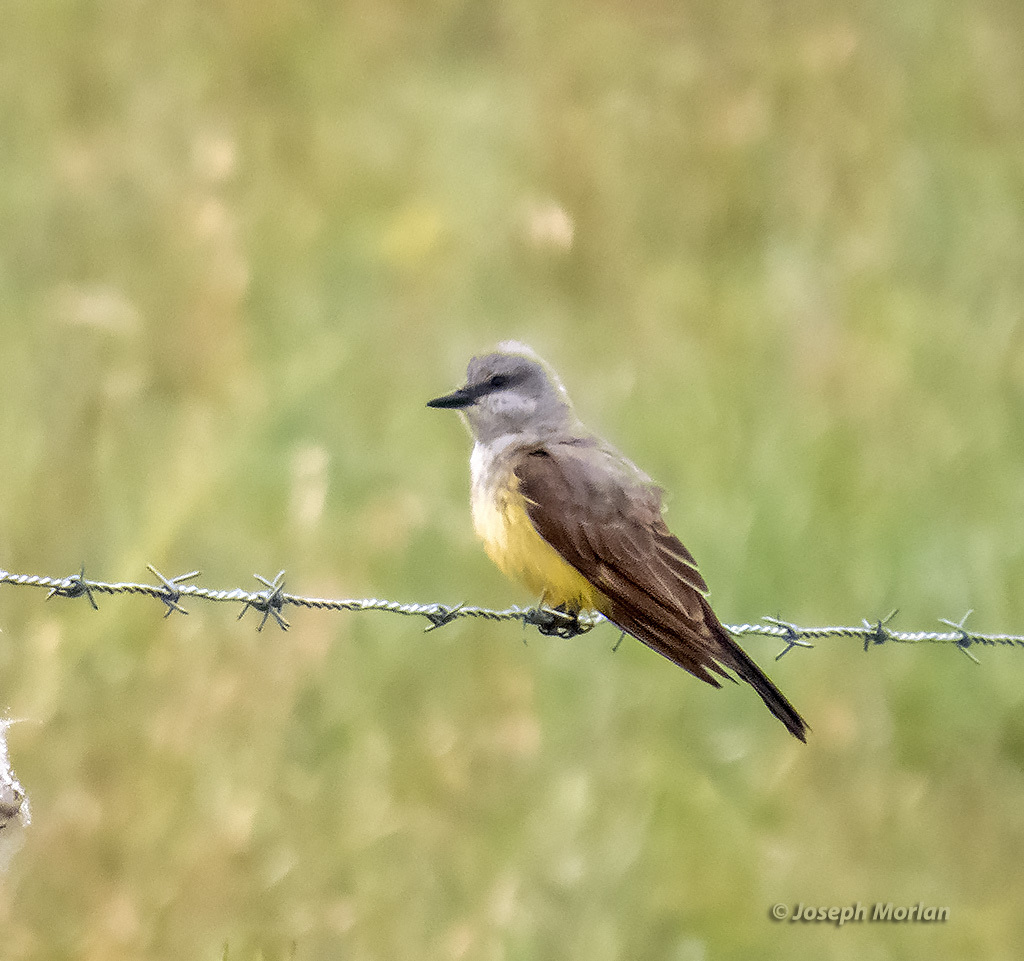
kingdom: Animalia
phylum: Chordata
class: Aves
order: Passeriformes
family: Tyrannidae
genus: Tyrannus
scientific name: Tyrannus verticalis
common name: Western kingbird
